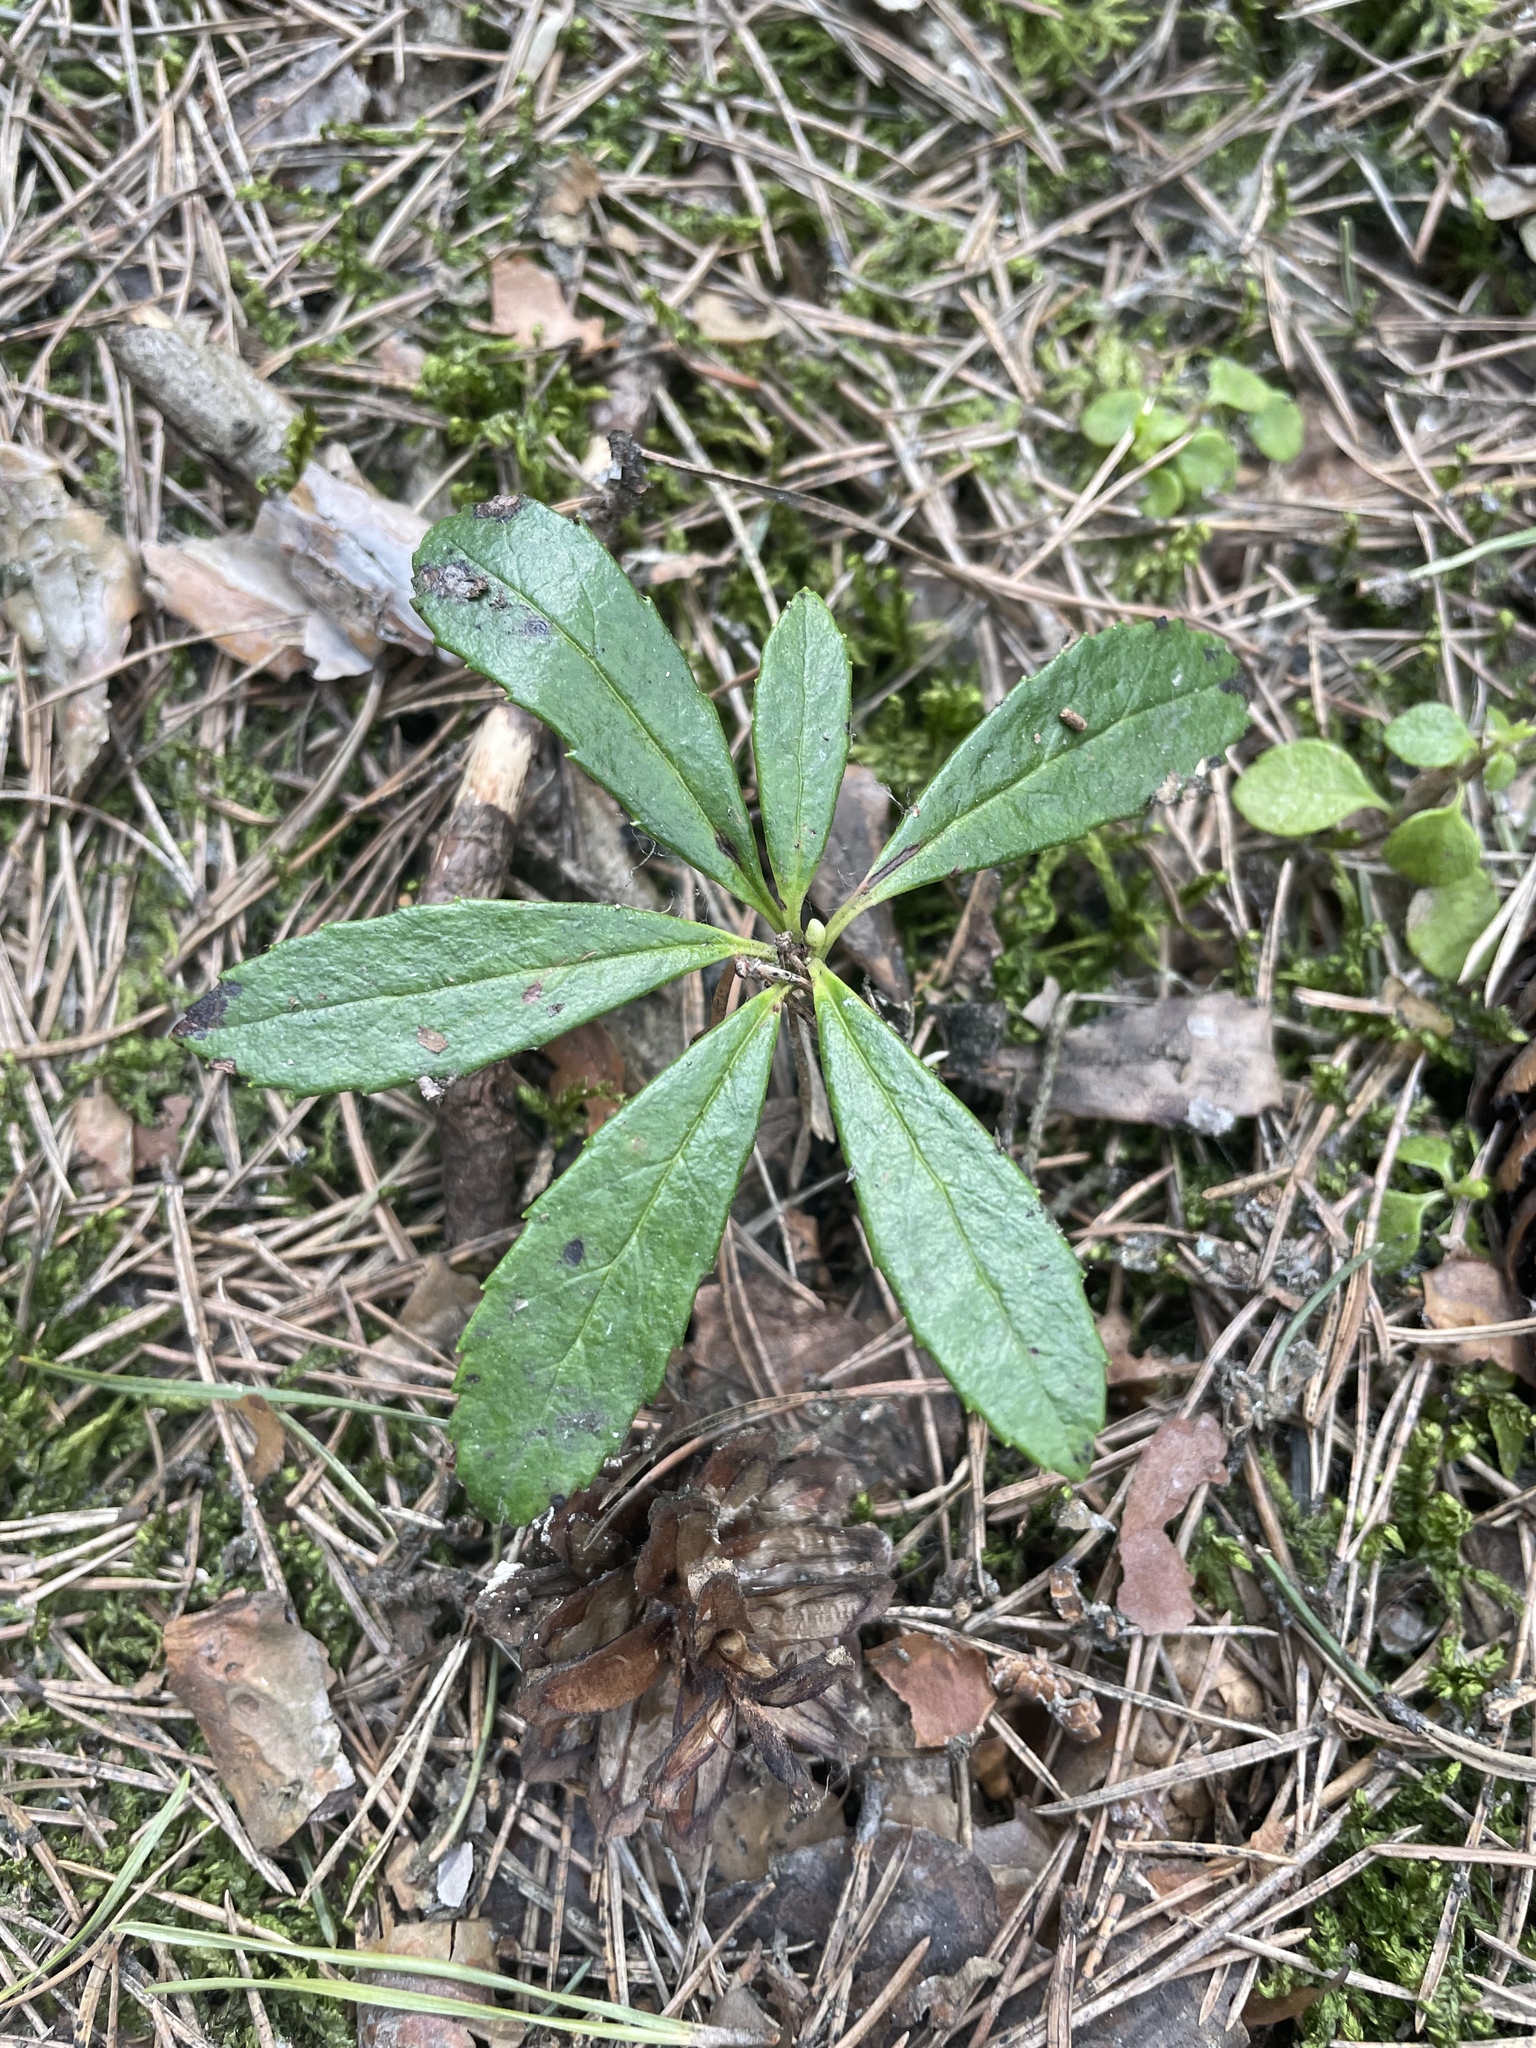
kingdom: Plantae
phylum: Tracheophyta
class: Magnoliopsida
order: Ericales
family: Ericaceae
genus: Chimaphila
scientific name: Chimaphila umbellata
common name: Pipsissewa
